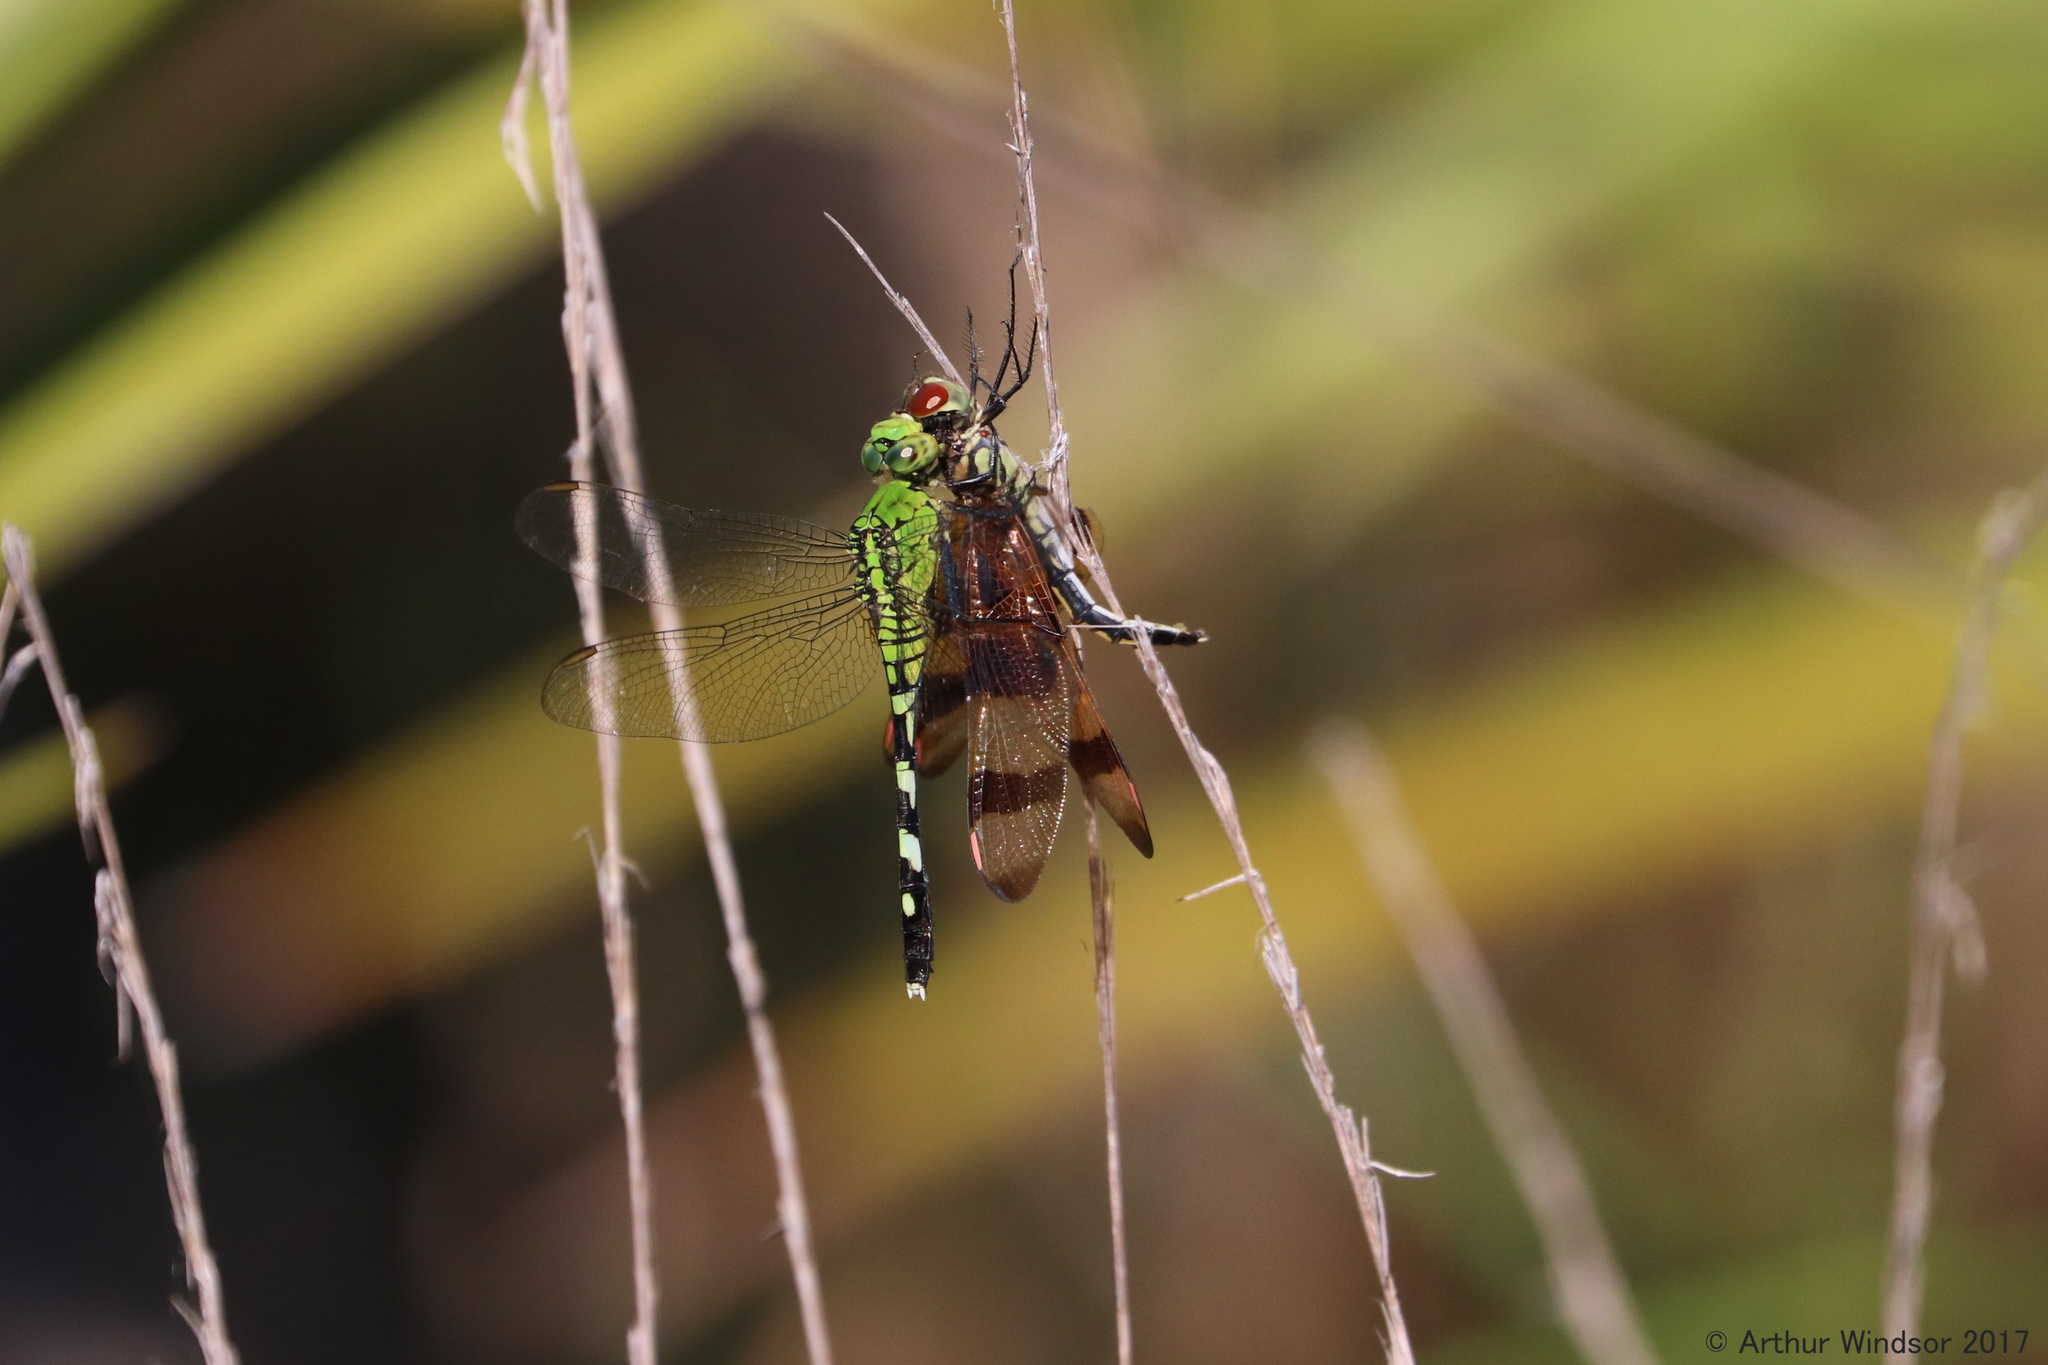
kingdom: Animalia
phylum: Arthropoda
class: Insecta
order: Odonata
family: Libellulidae
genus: Erythemis
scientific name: Erythemis simplicicollis
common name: Eastern pondhawk
